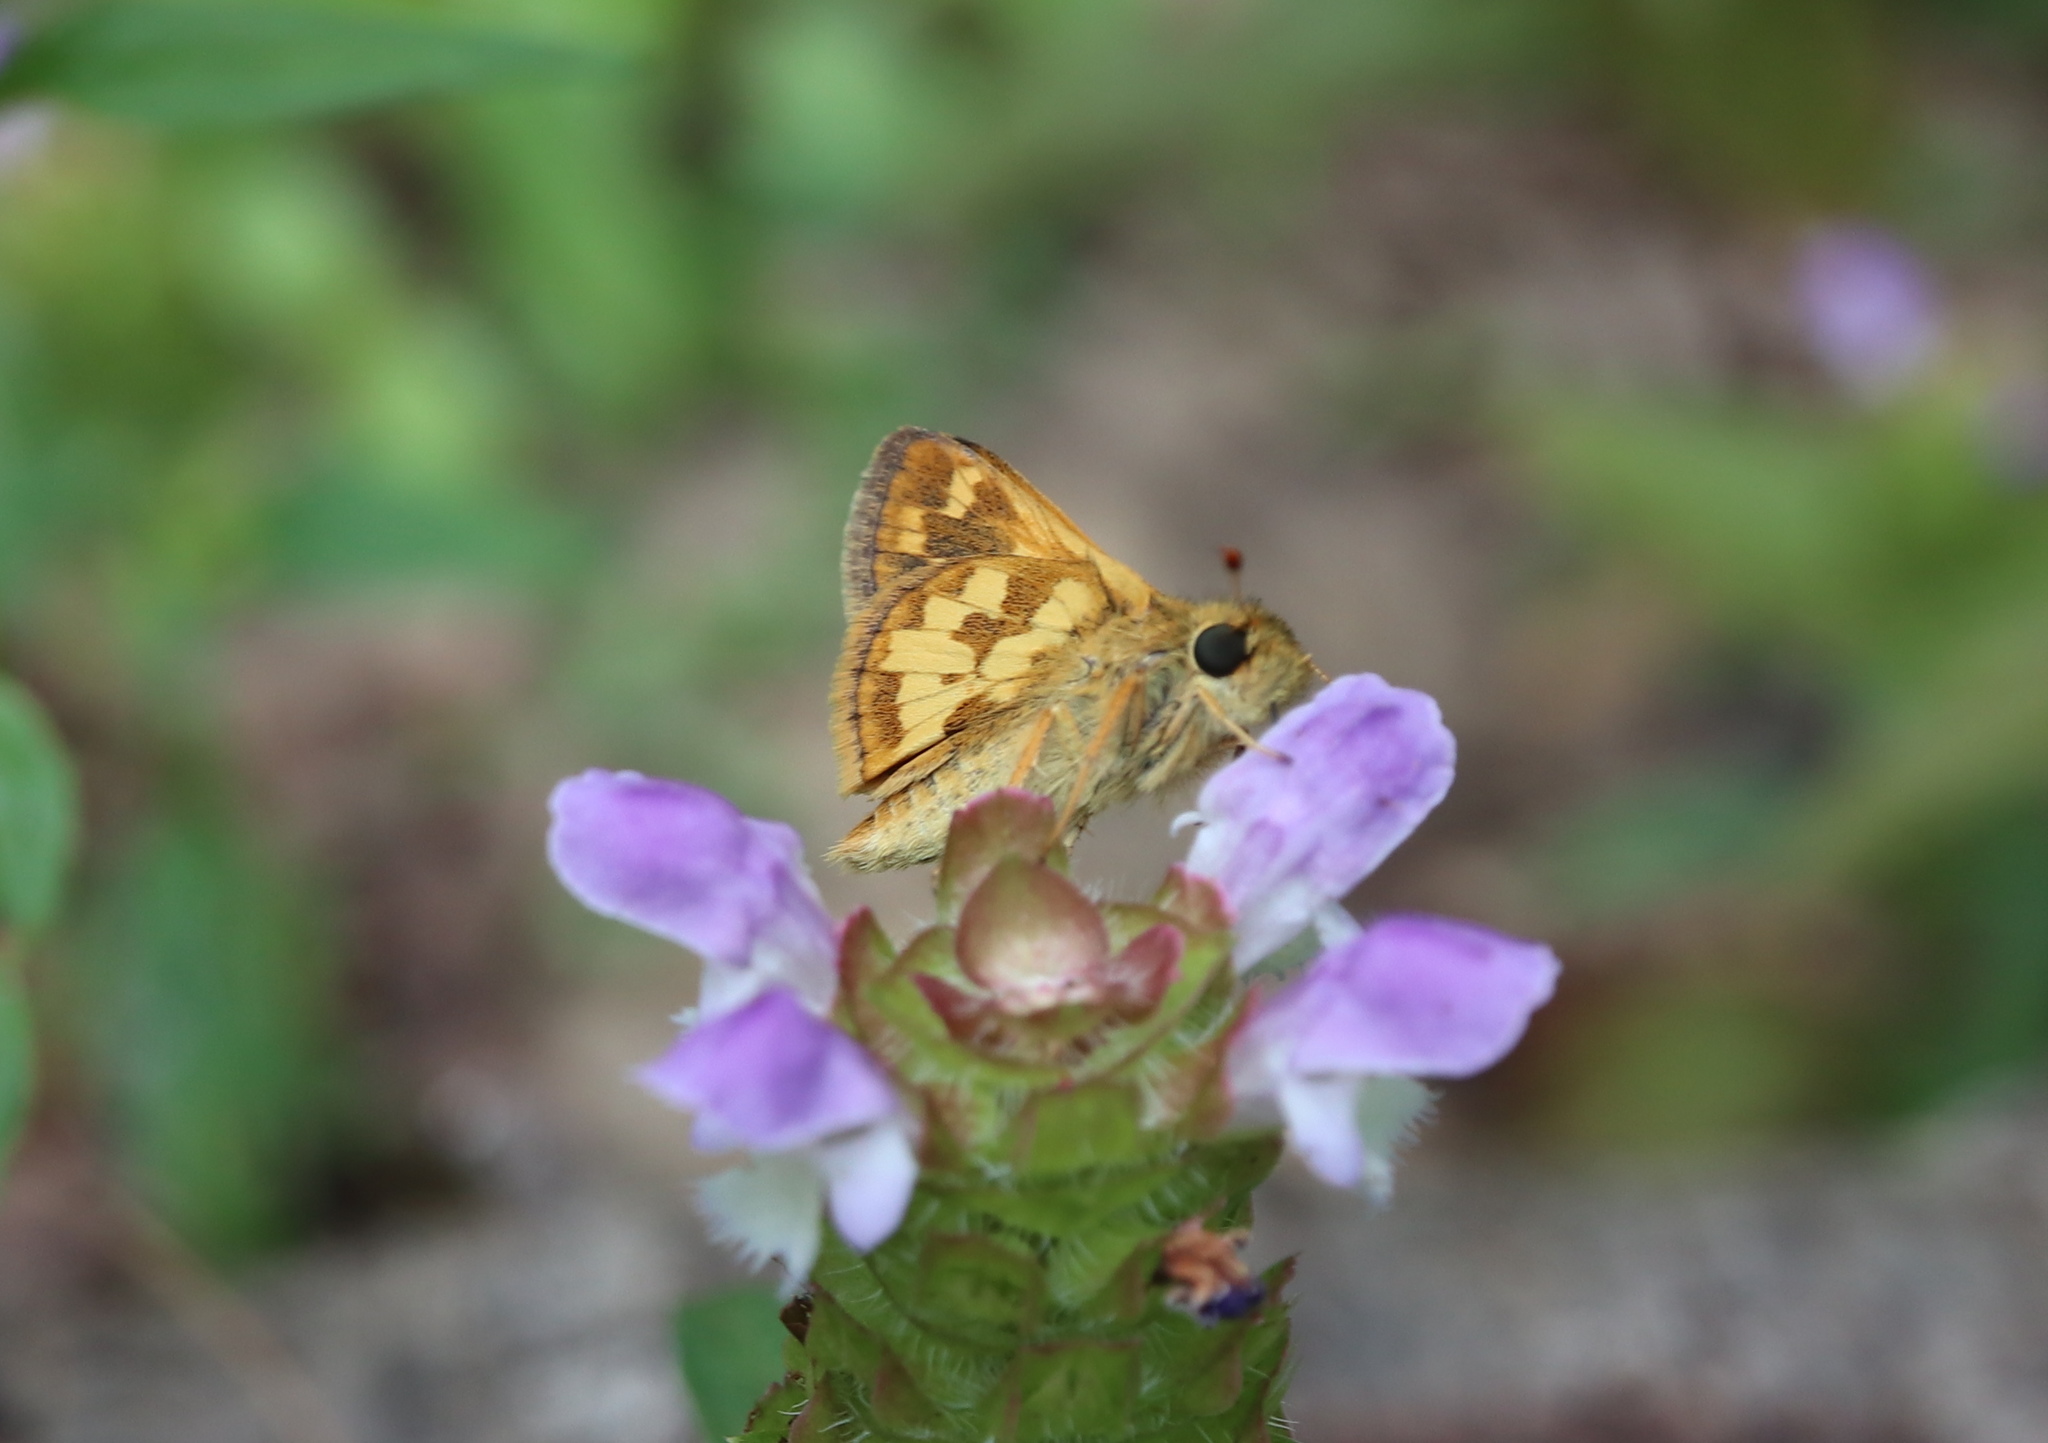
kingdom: Animalia
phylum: Arthropoda
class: Insecta
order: Lepidoptera
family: Hesperiidae
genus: Polites
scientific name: Polites coras
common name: Peck's skipper
